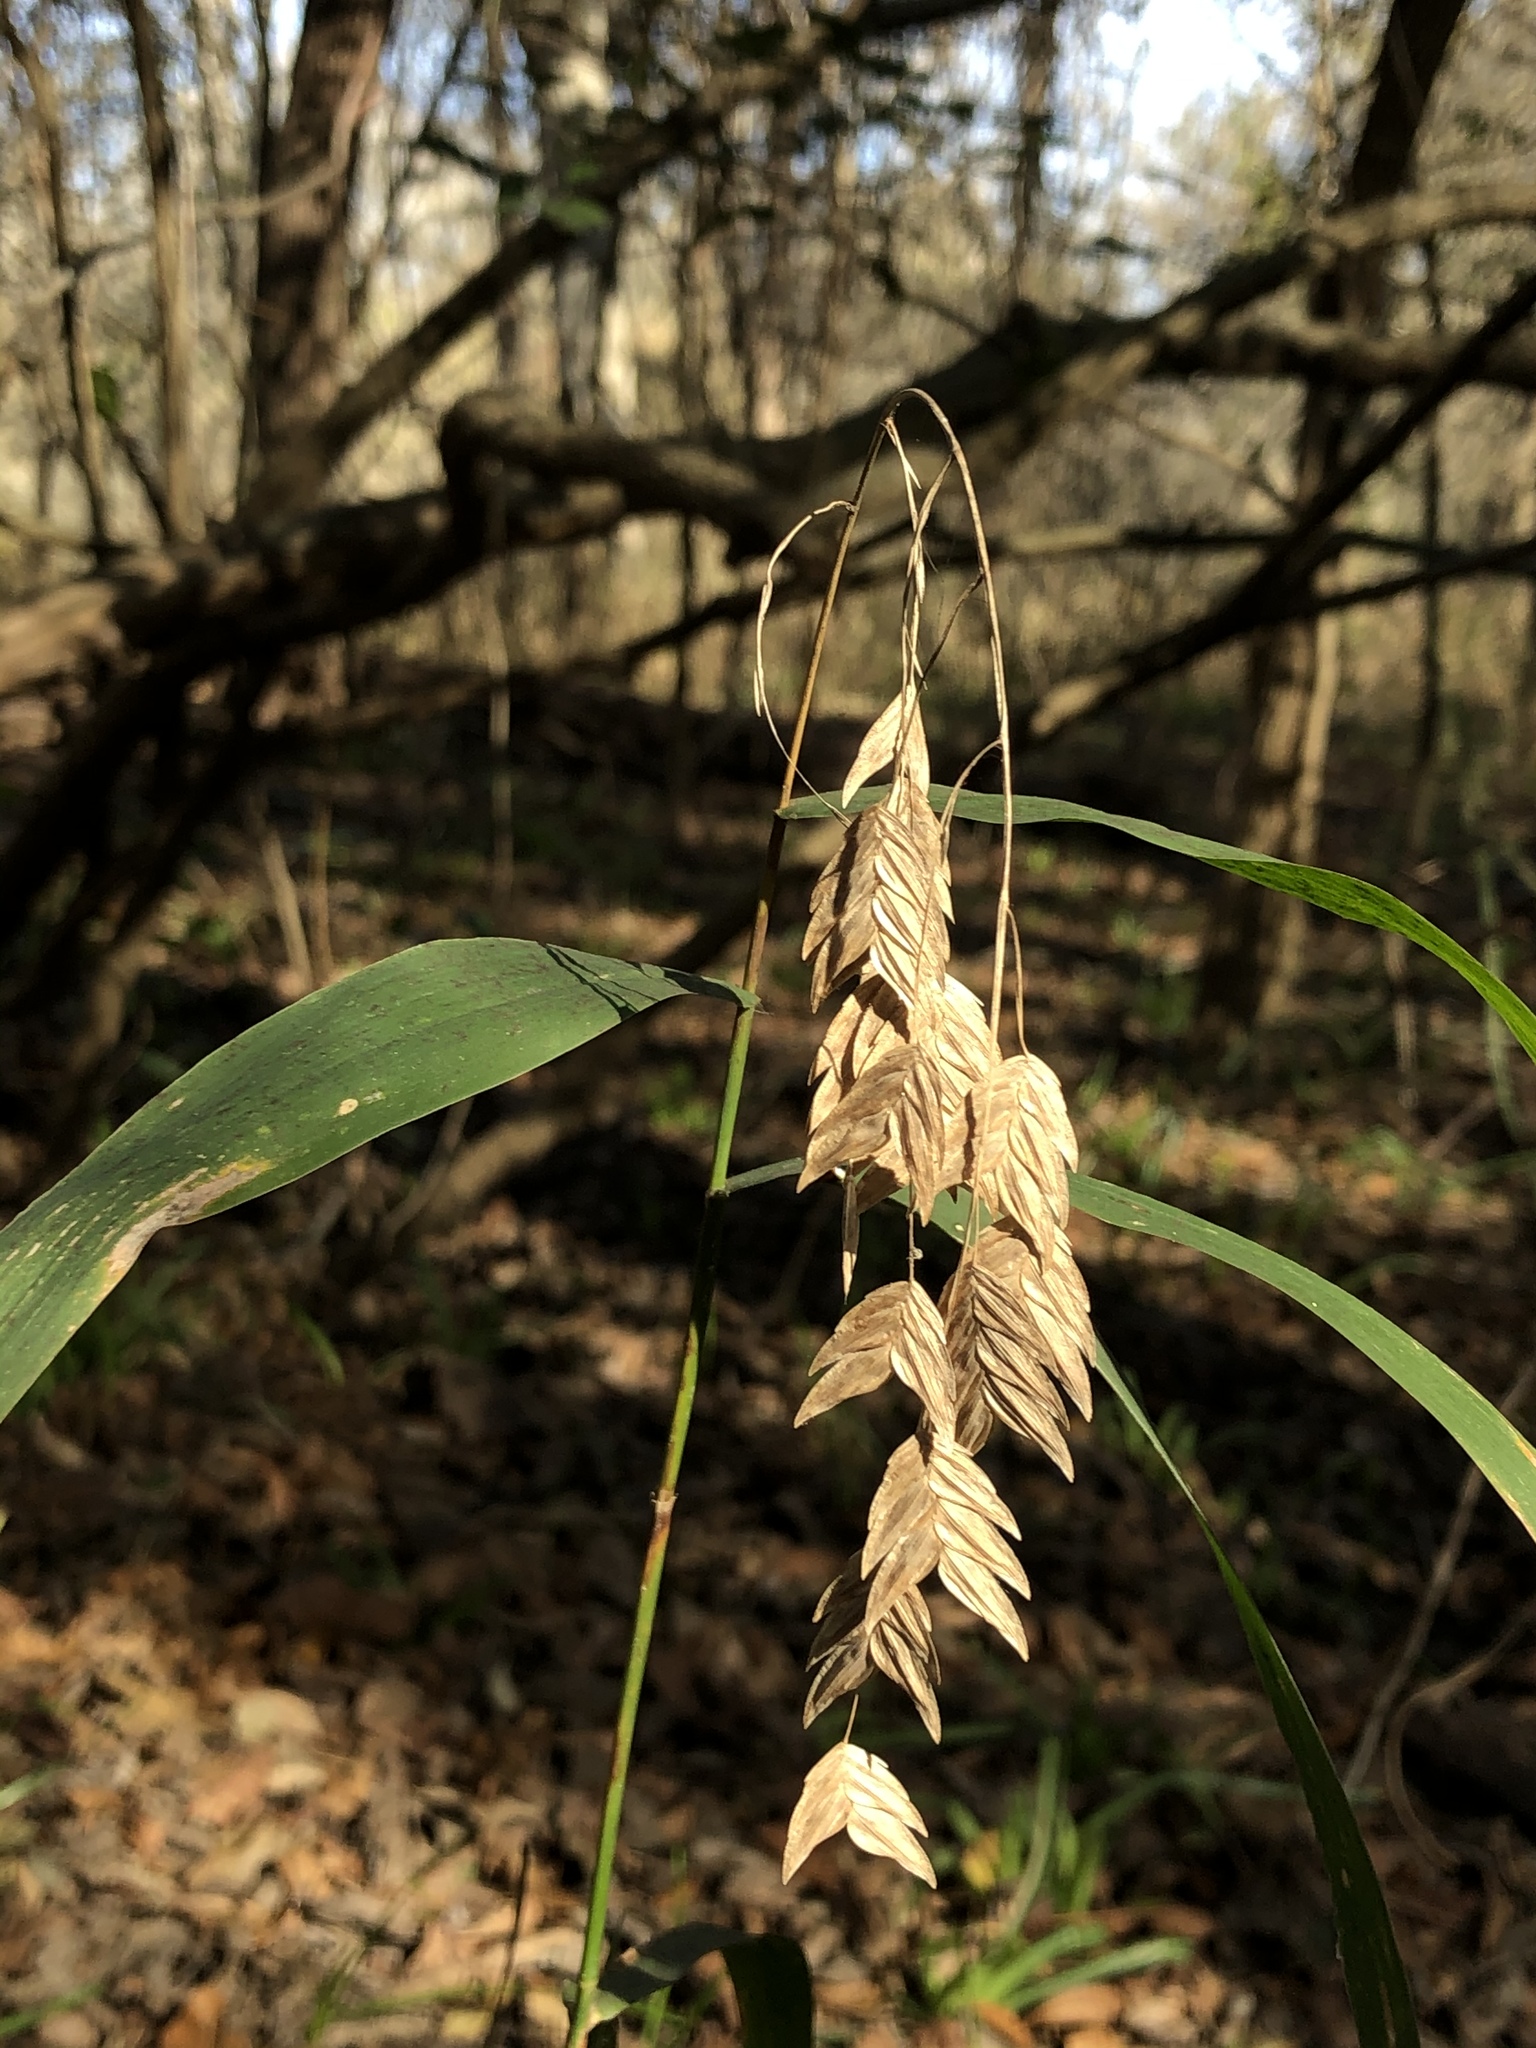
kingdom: Plantae
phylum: Tracheophyta
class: Liliopsida
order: Poales
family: Poaceae
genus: Chasmanthium
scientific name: Chasmanthium latifolium
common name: Broad-leaved chasmanthium
